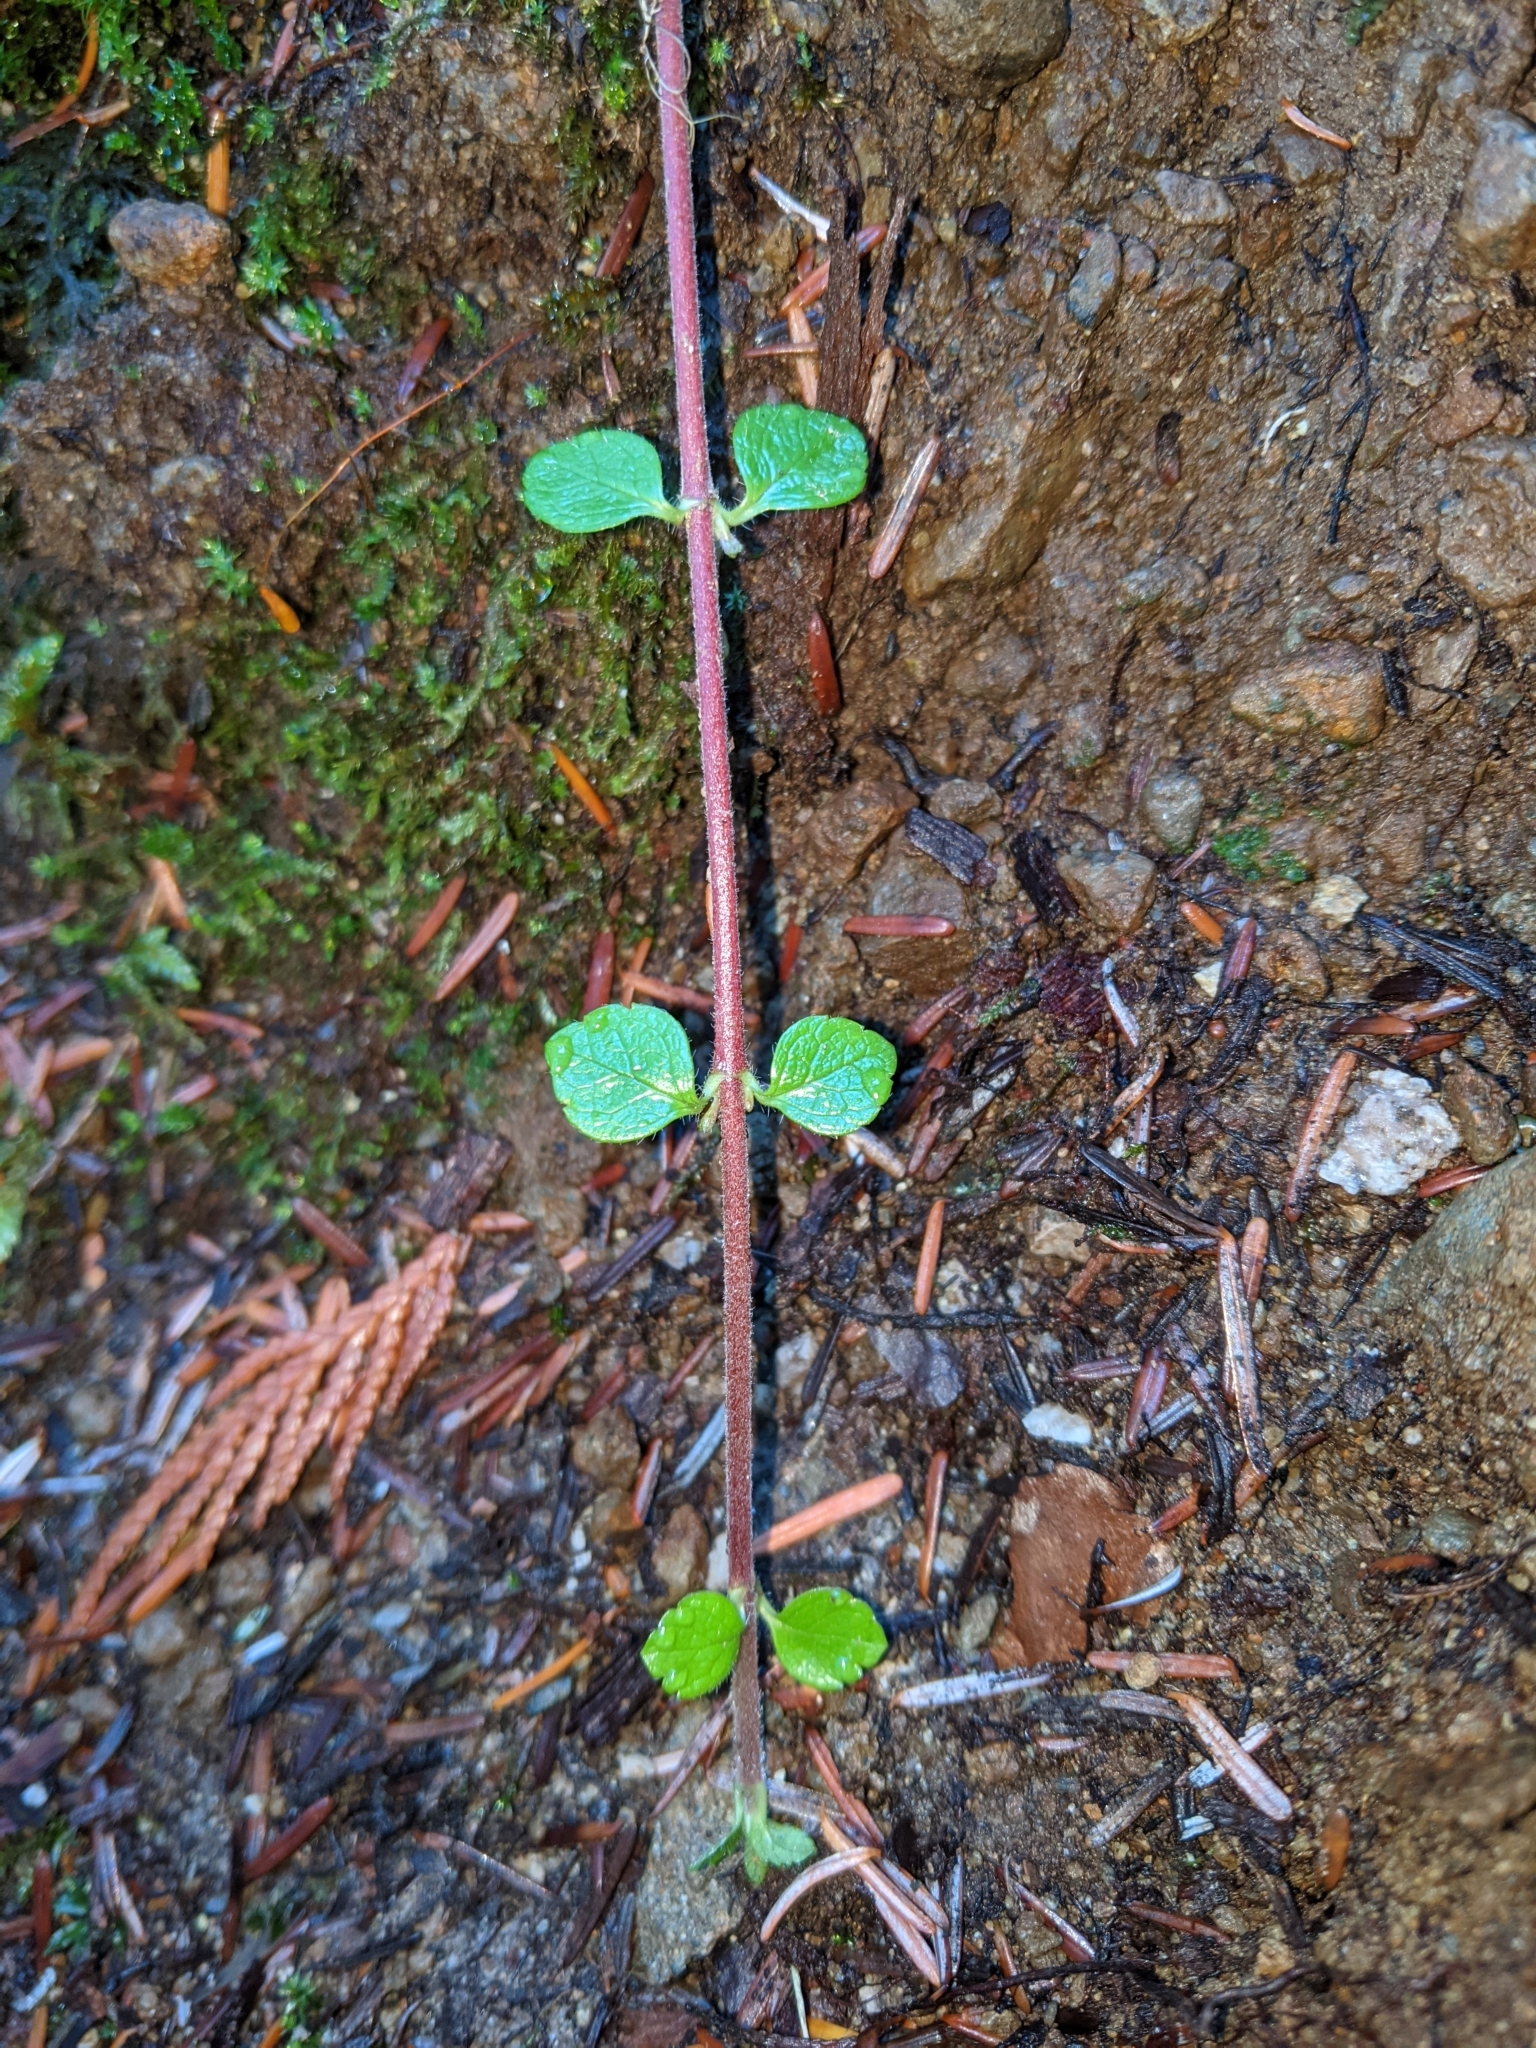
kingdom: Plantae
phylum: Tracheophyta
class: Magnoliopsida
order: Dipsacales
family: Caprifoliaceae
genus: Linnaea
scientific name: Linnaea borealis
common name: Twinflower
